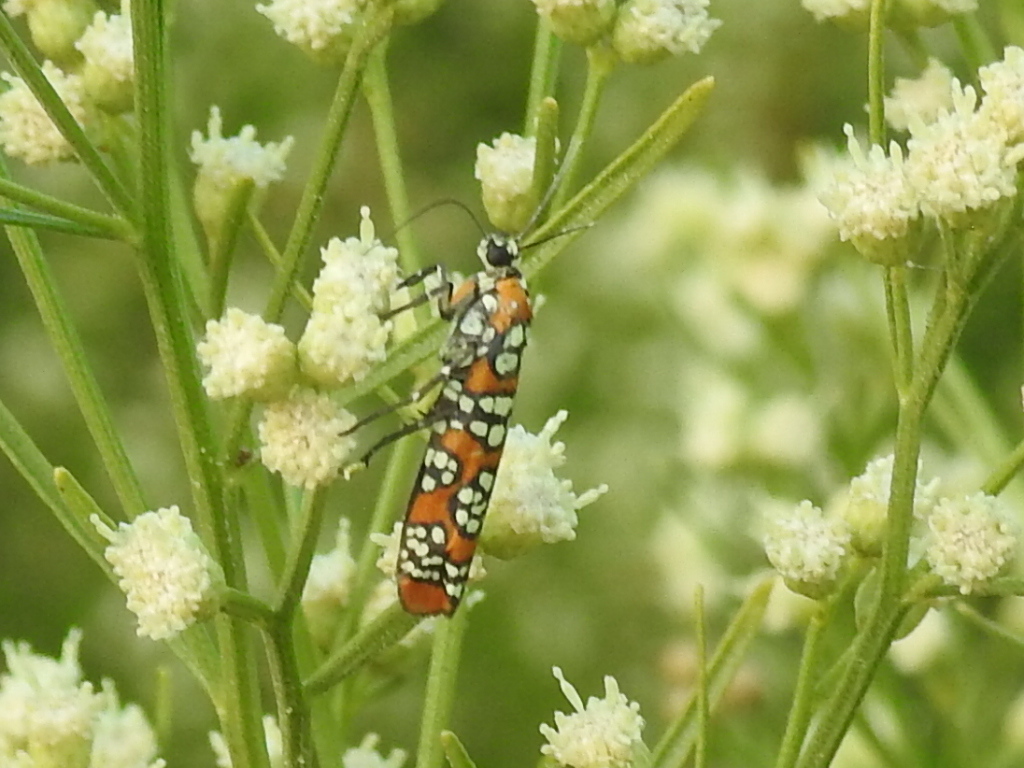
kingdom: Animalia
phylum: Arthropoda
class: Insecta
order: Lepidoptera
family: Attevidae
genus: Atteva
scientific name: Atteva punctella
